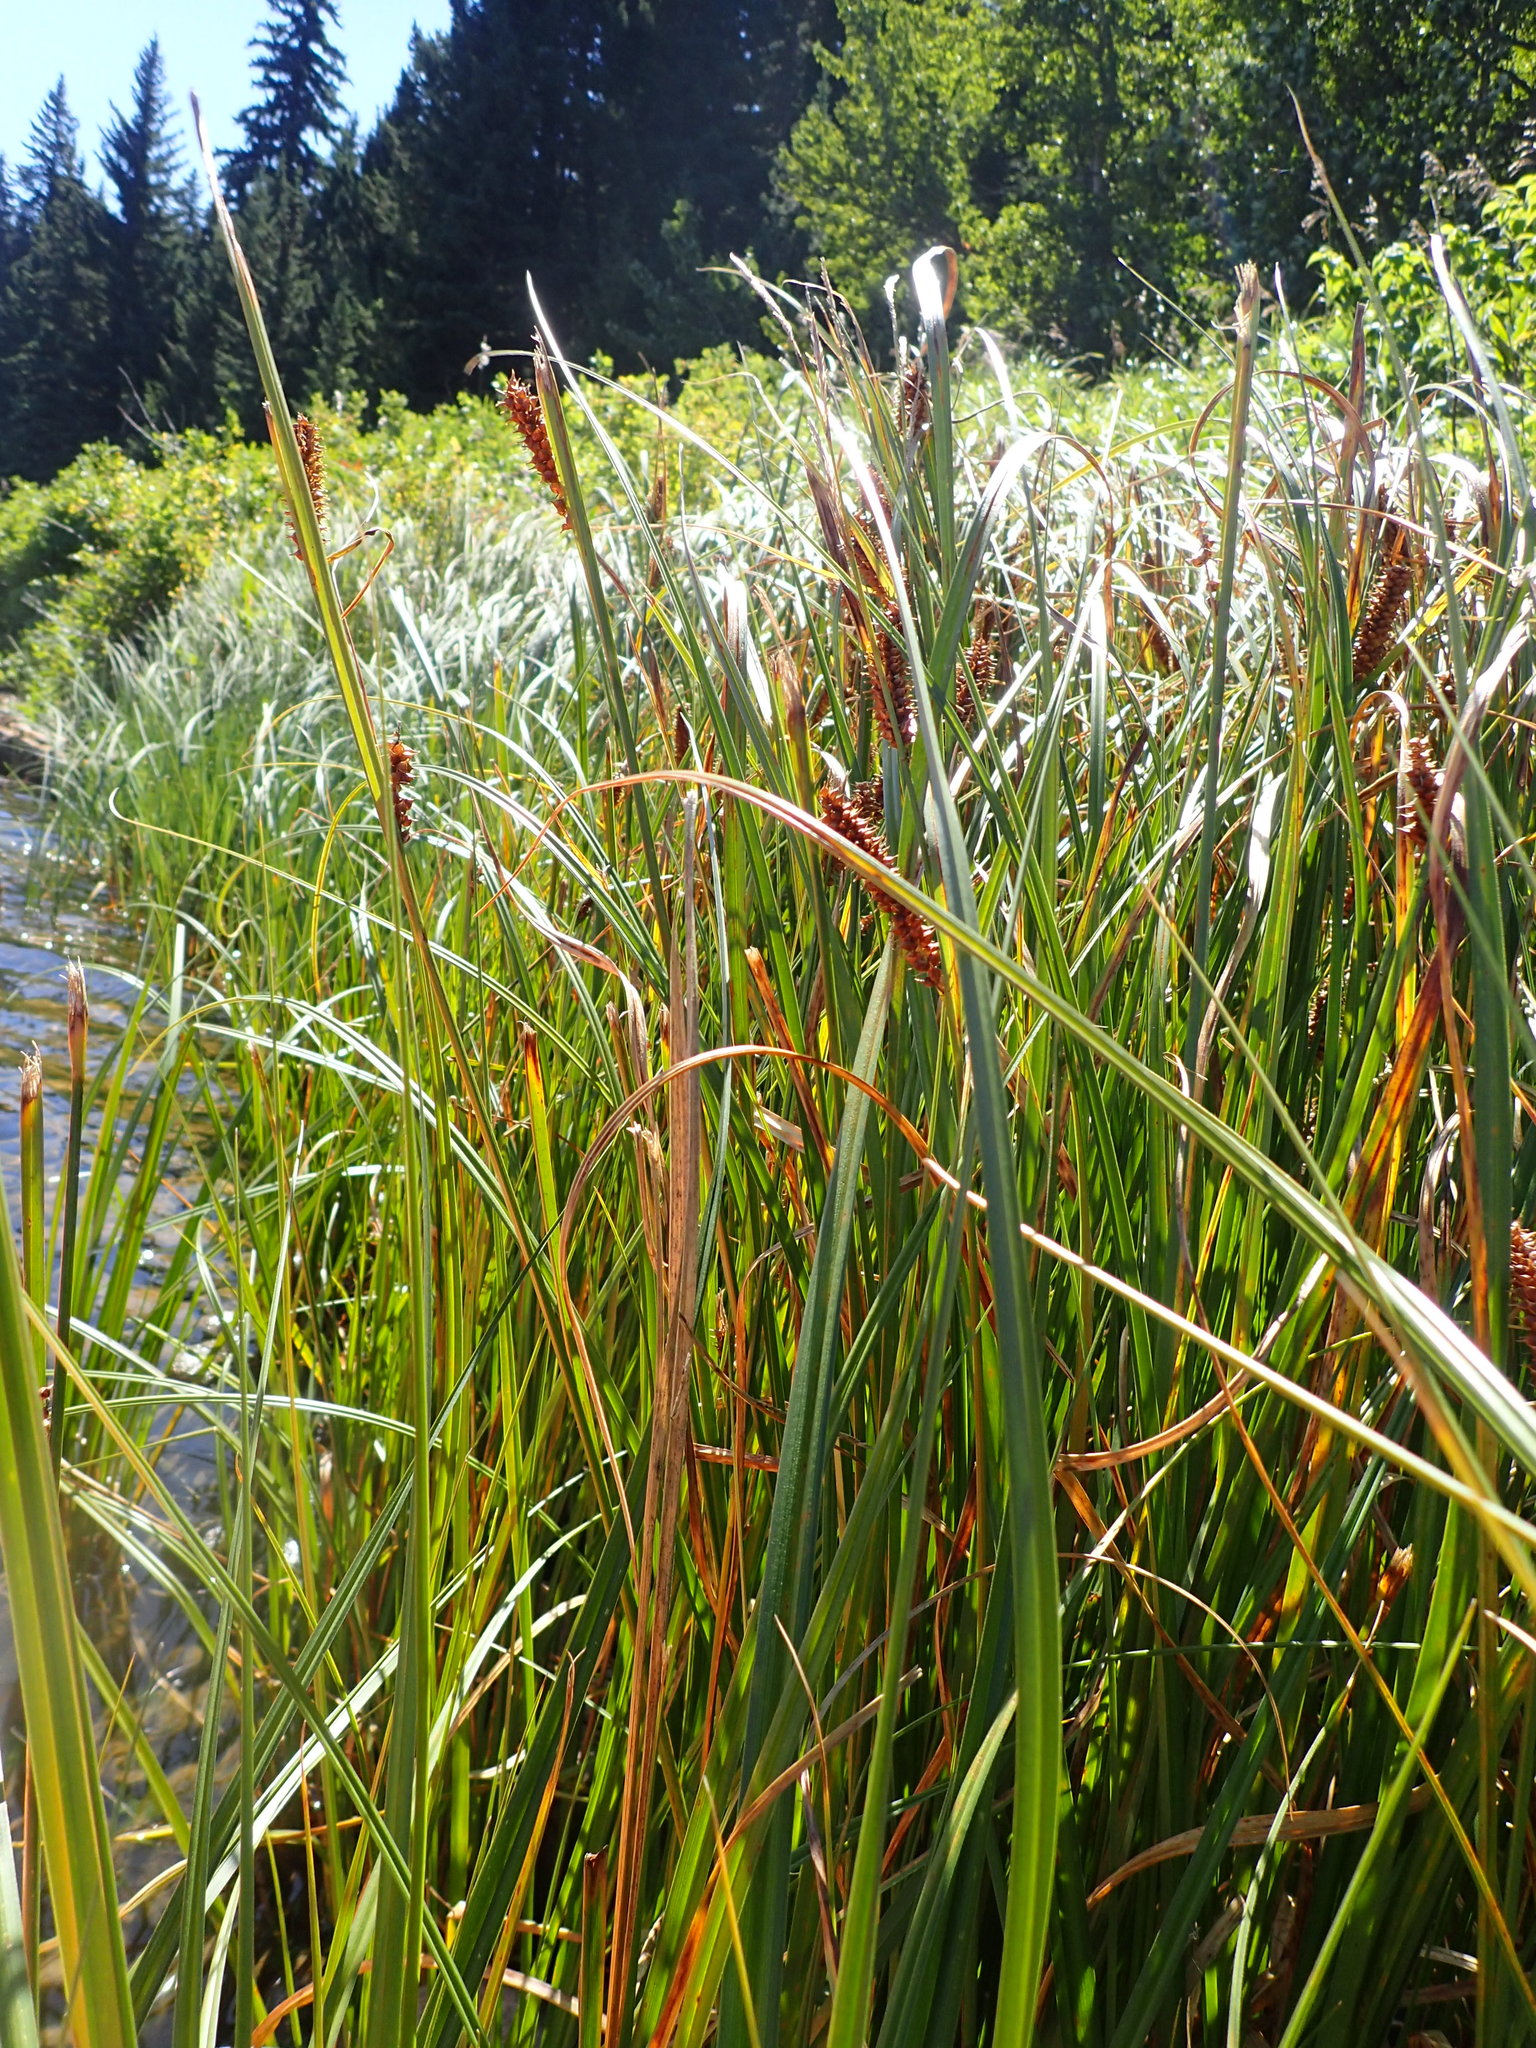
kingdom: Plantae
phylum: Tracheophyta
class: Liliopsida
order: Poales
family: Cyperaceae
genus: Carex
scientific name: Carex utriculata
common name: Beaked sedge
